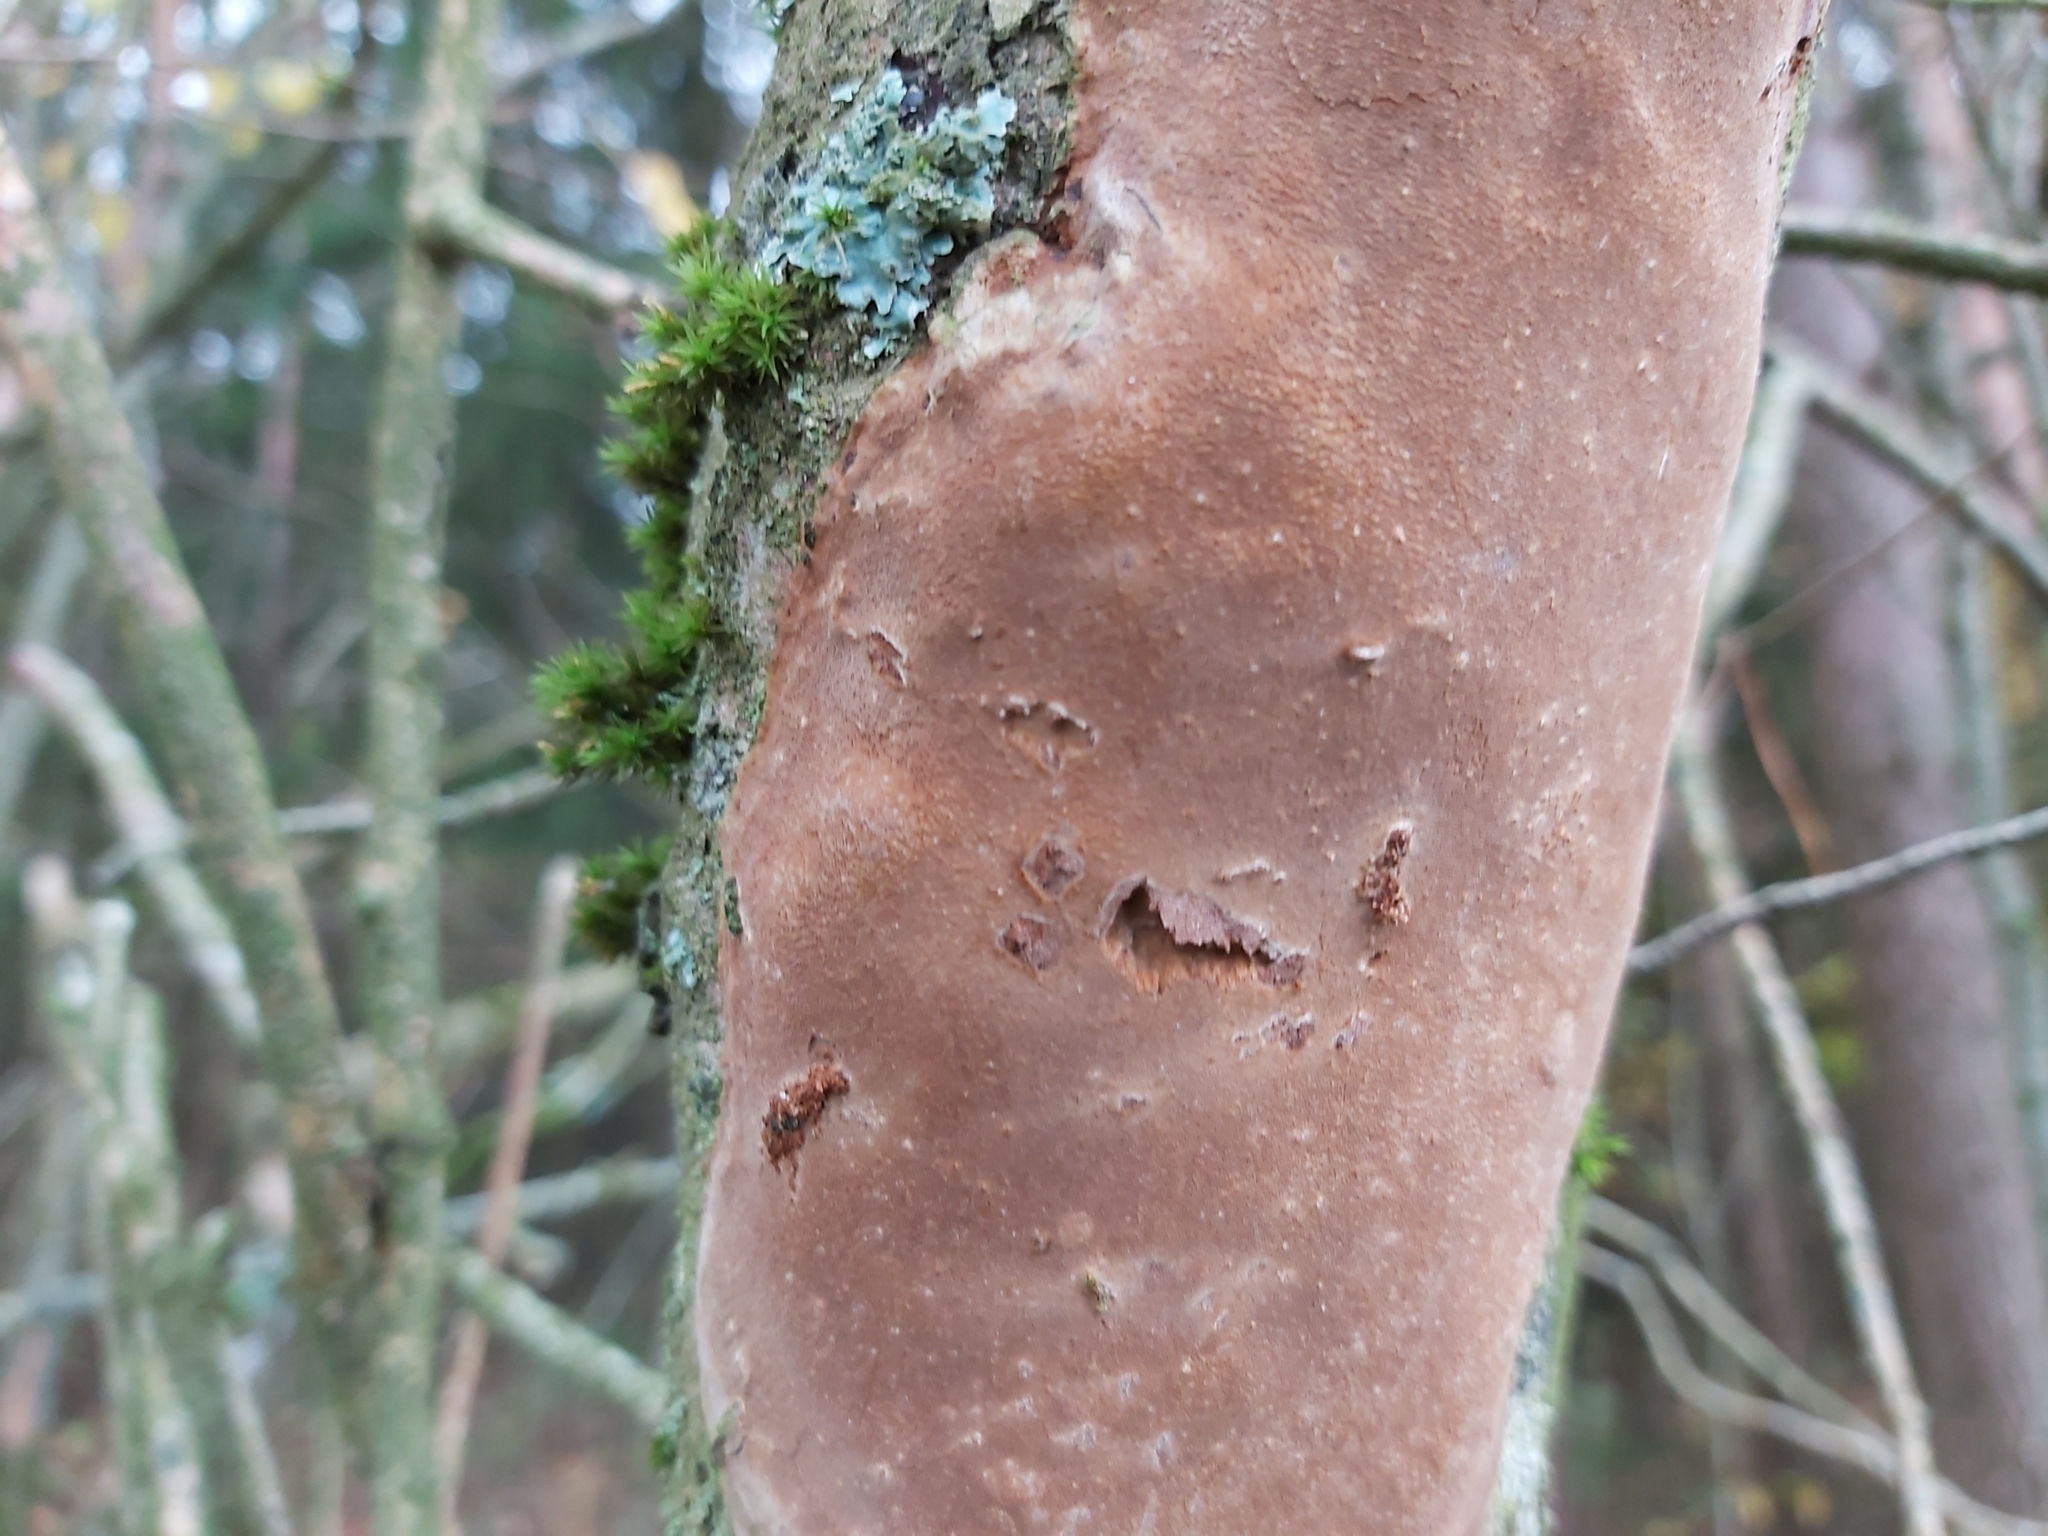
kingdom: Fungi
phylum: Basidiomycota
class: Agaricomycetes
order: Hymenochaetales
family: Hymenochaetaceae
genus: Fomitiporia
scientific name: Fomitiporia punctata
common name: Elbowpatch crust
